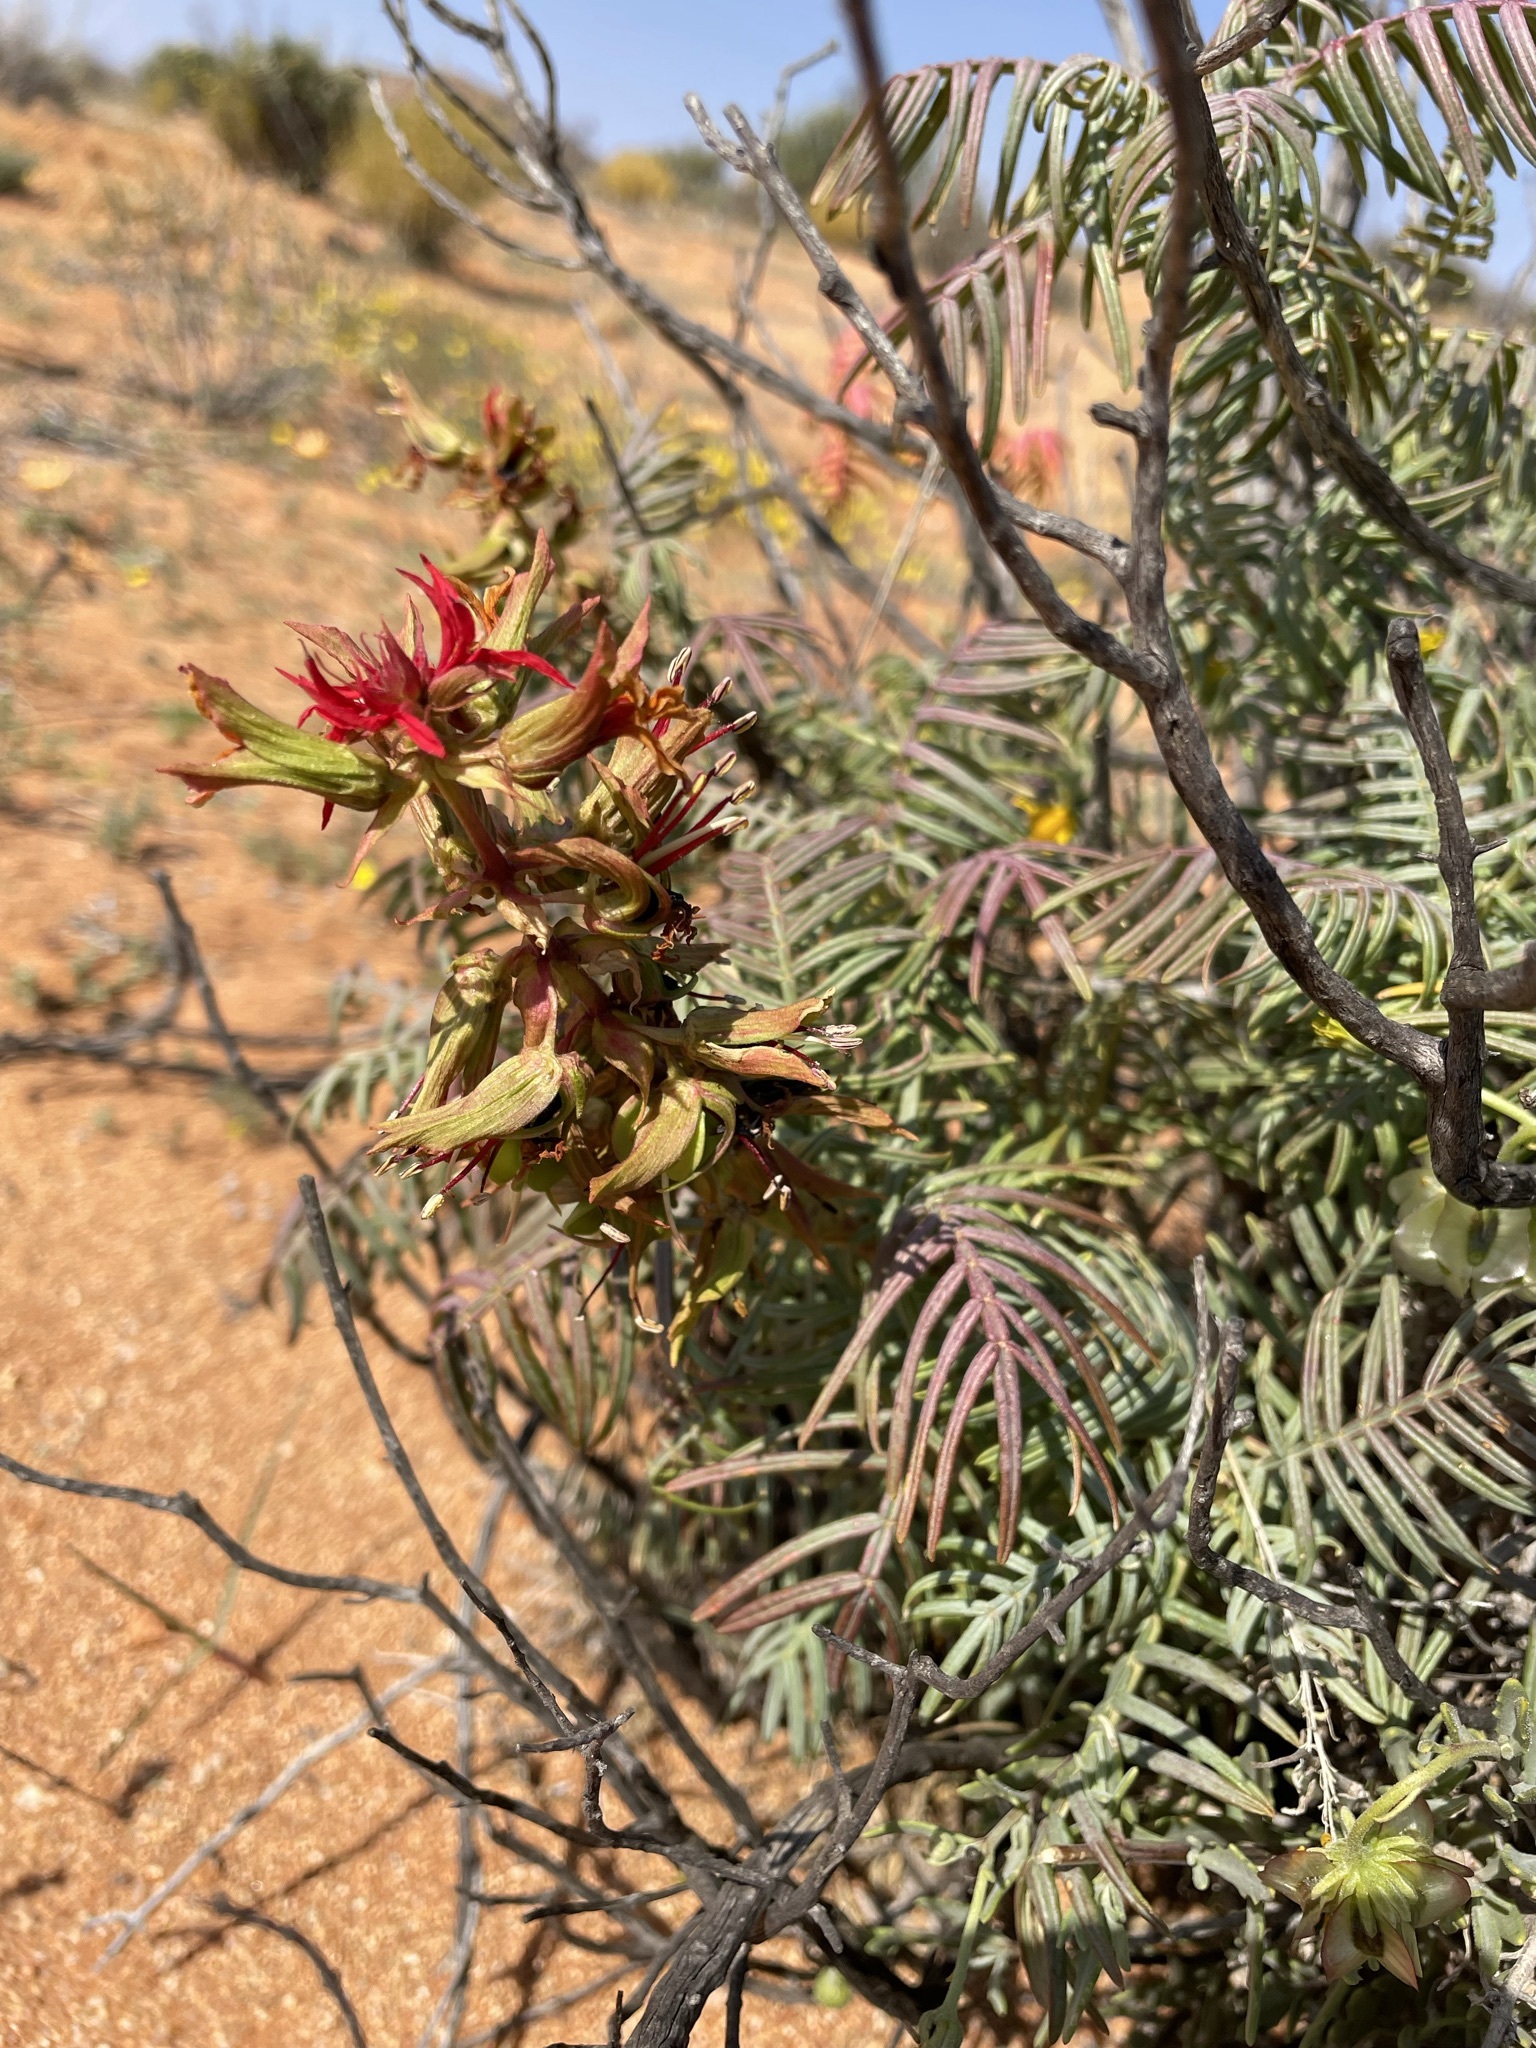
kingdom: Plantae
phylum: Tracheophyta
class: Magnoliopsida
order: Geraniales
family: Melianthaceae
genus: Melianthus
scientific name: Melianthus comosus
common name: Touch-me-not
